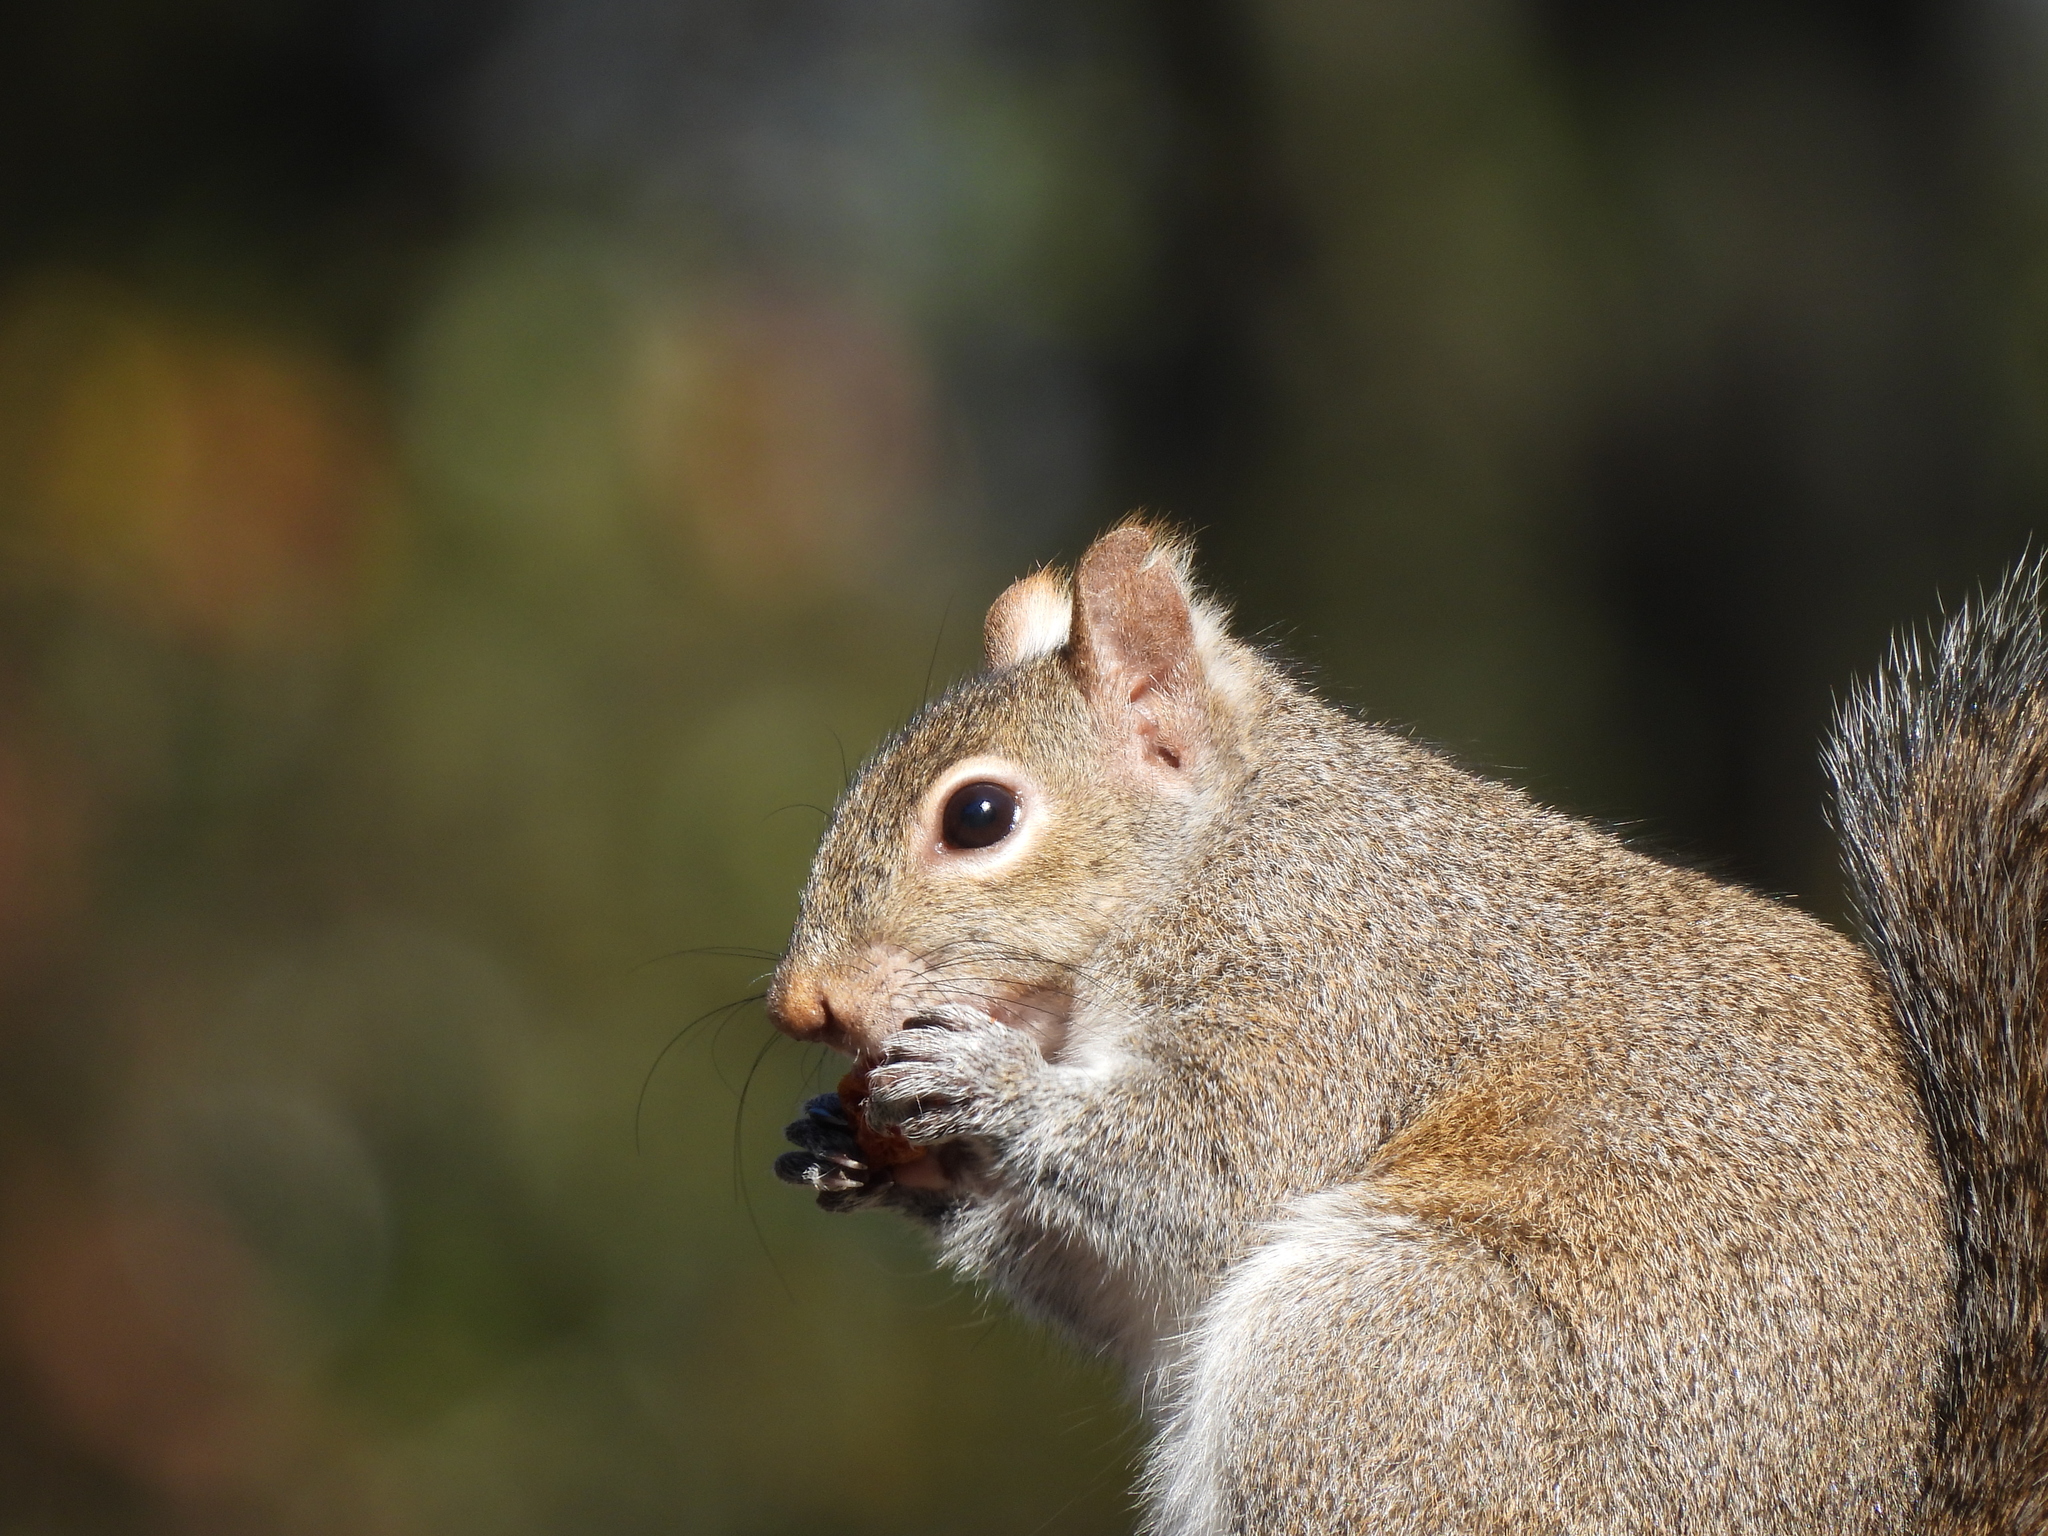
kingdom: Animalia
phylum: Chordata
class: Mammalia
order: Rodentia
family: Sciuridae
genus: Sciurus
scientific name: Sciurus carolinensis
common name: Eastern gray squirrel
